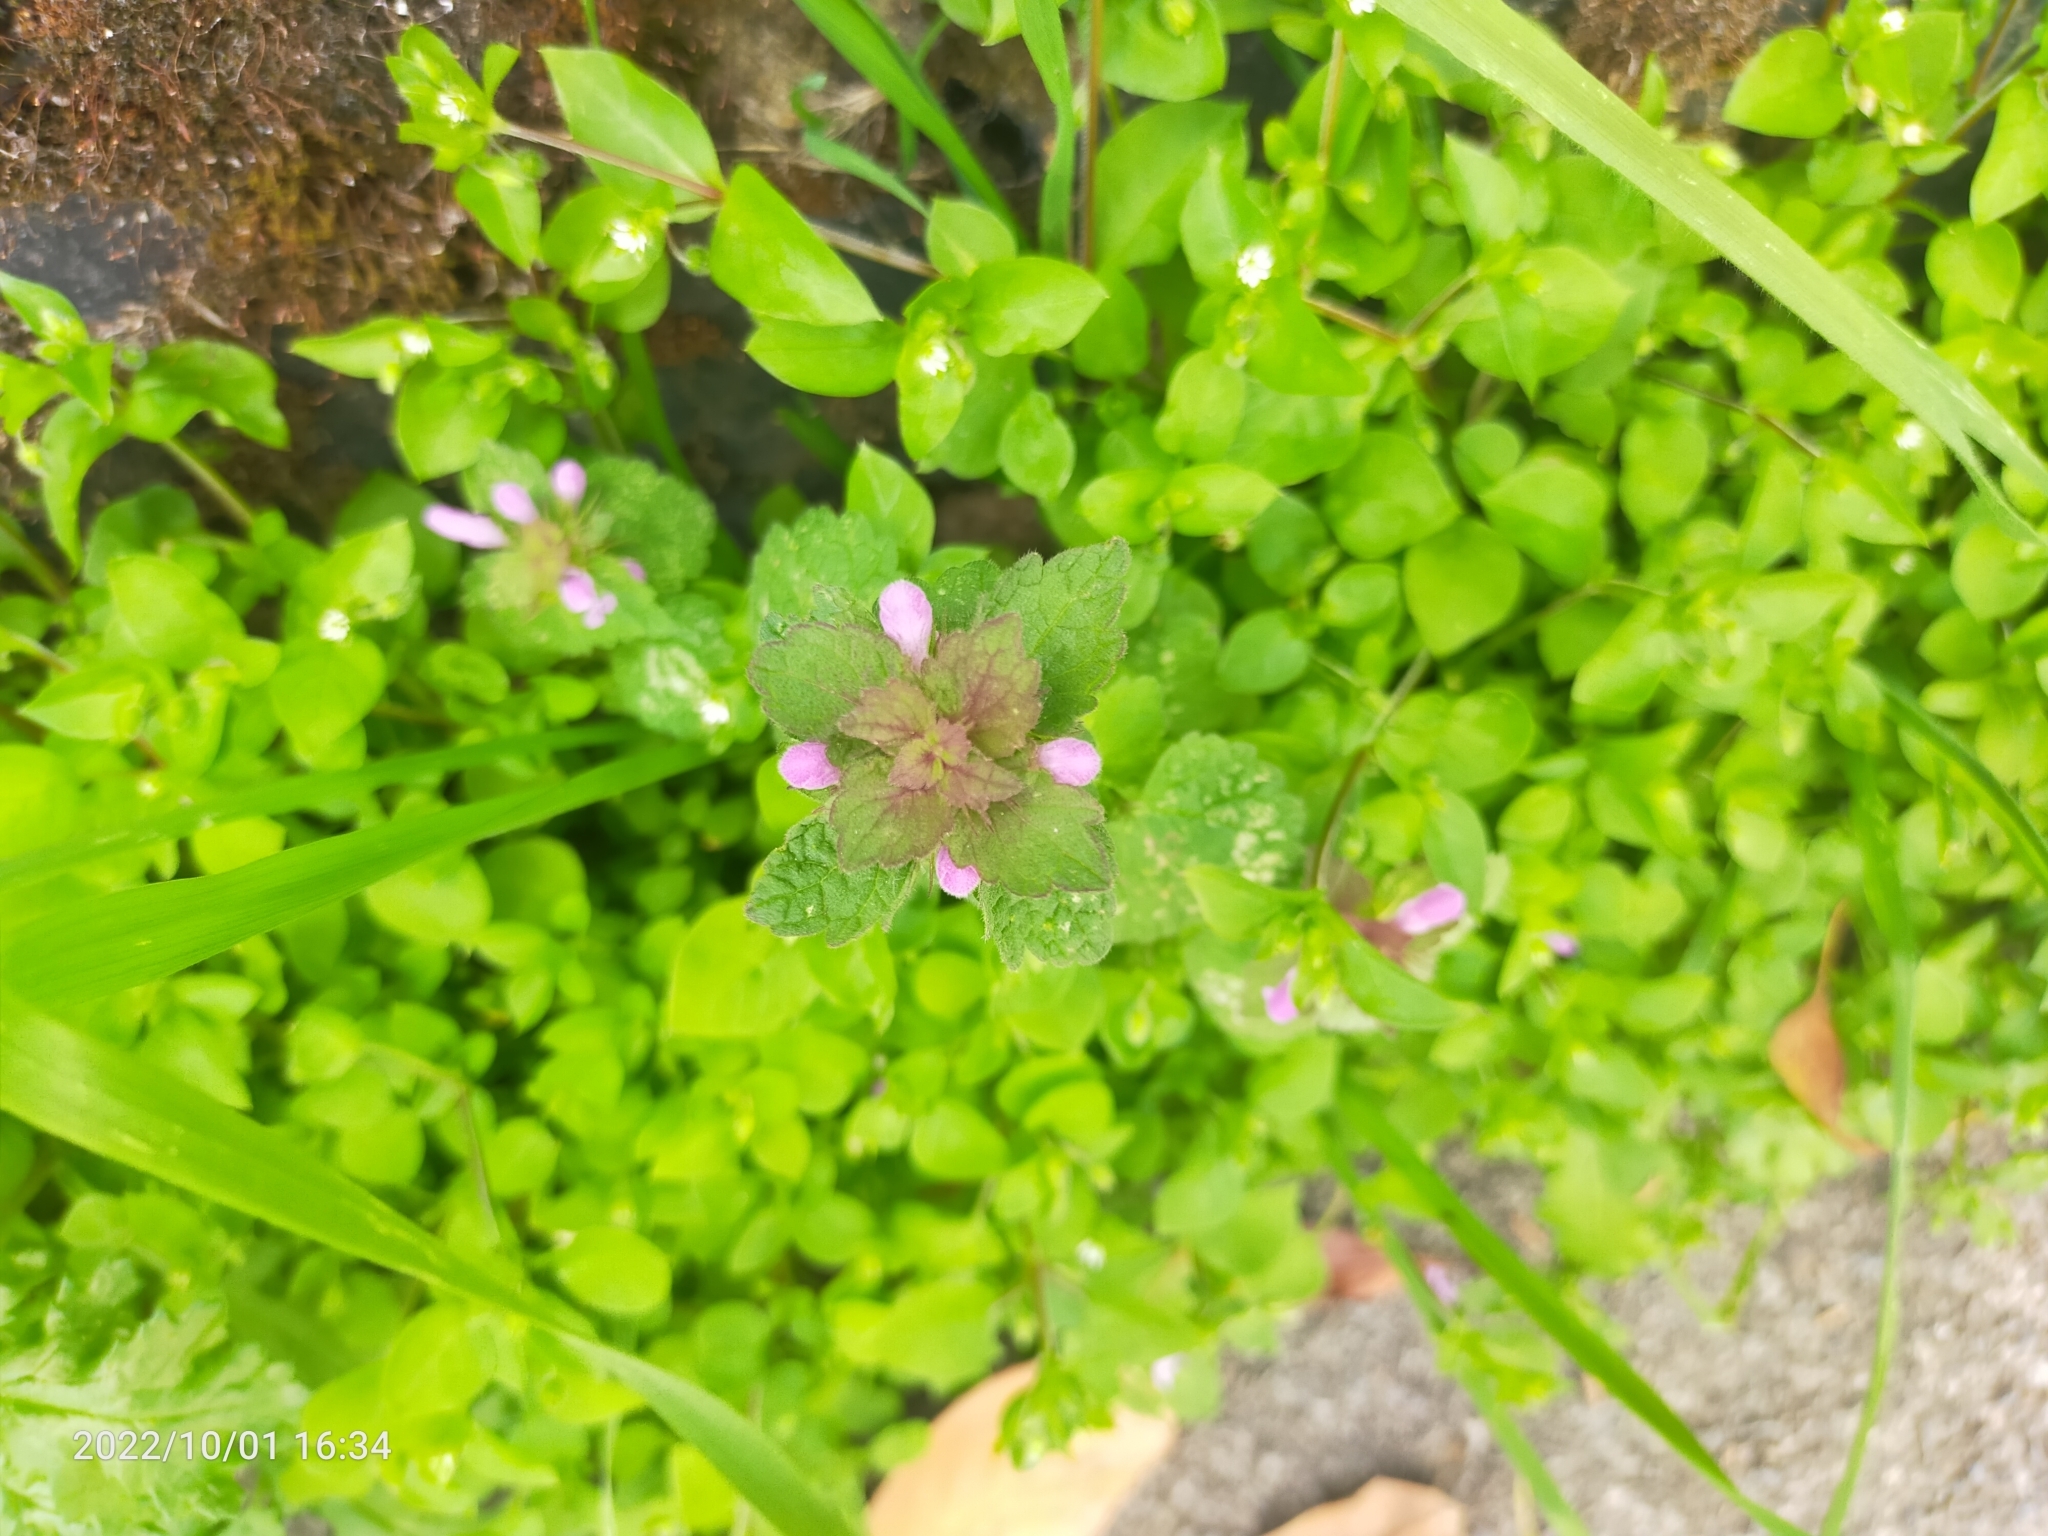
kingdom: Plantae
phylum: Tracheophyta
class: Magnoliopsida
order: Lamiales
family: Lamiaceae
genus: Lamium
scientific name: Lamium purpureum
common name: Red dead-nettle
